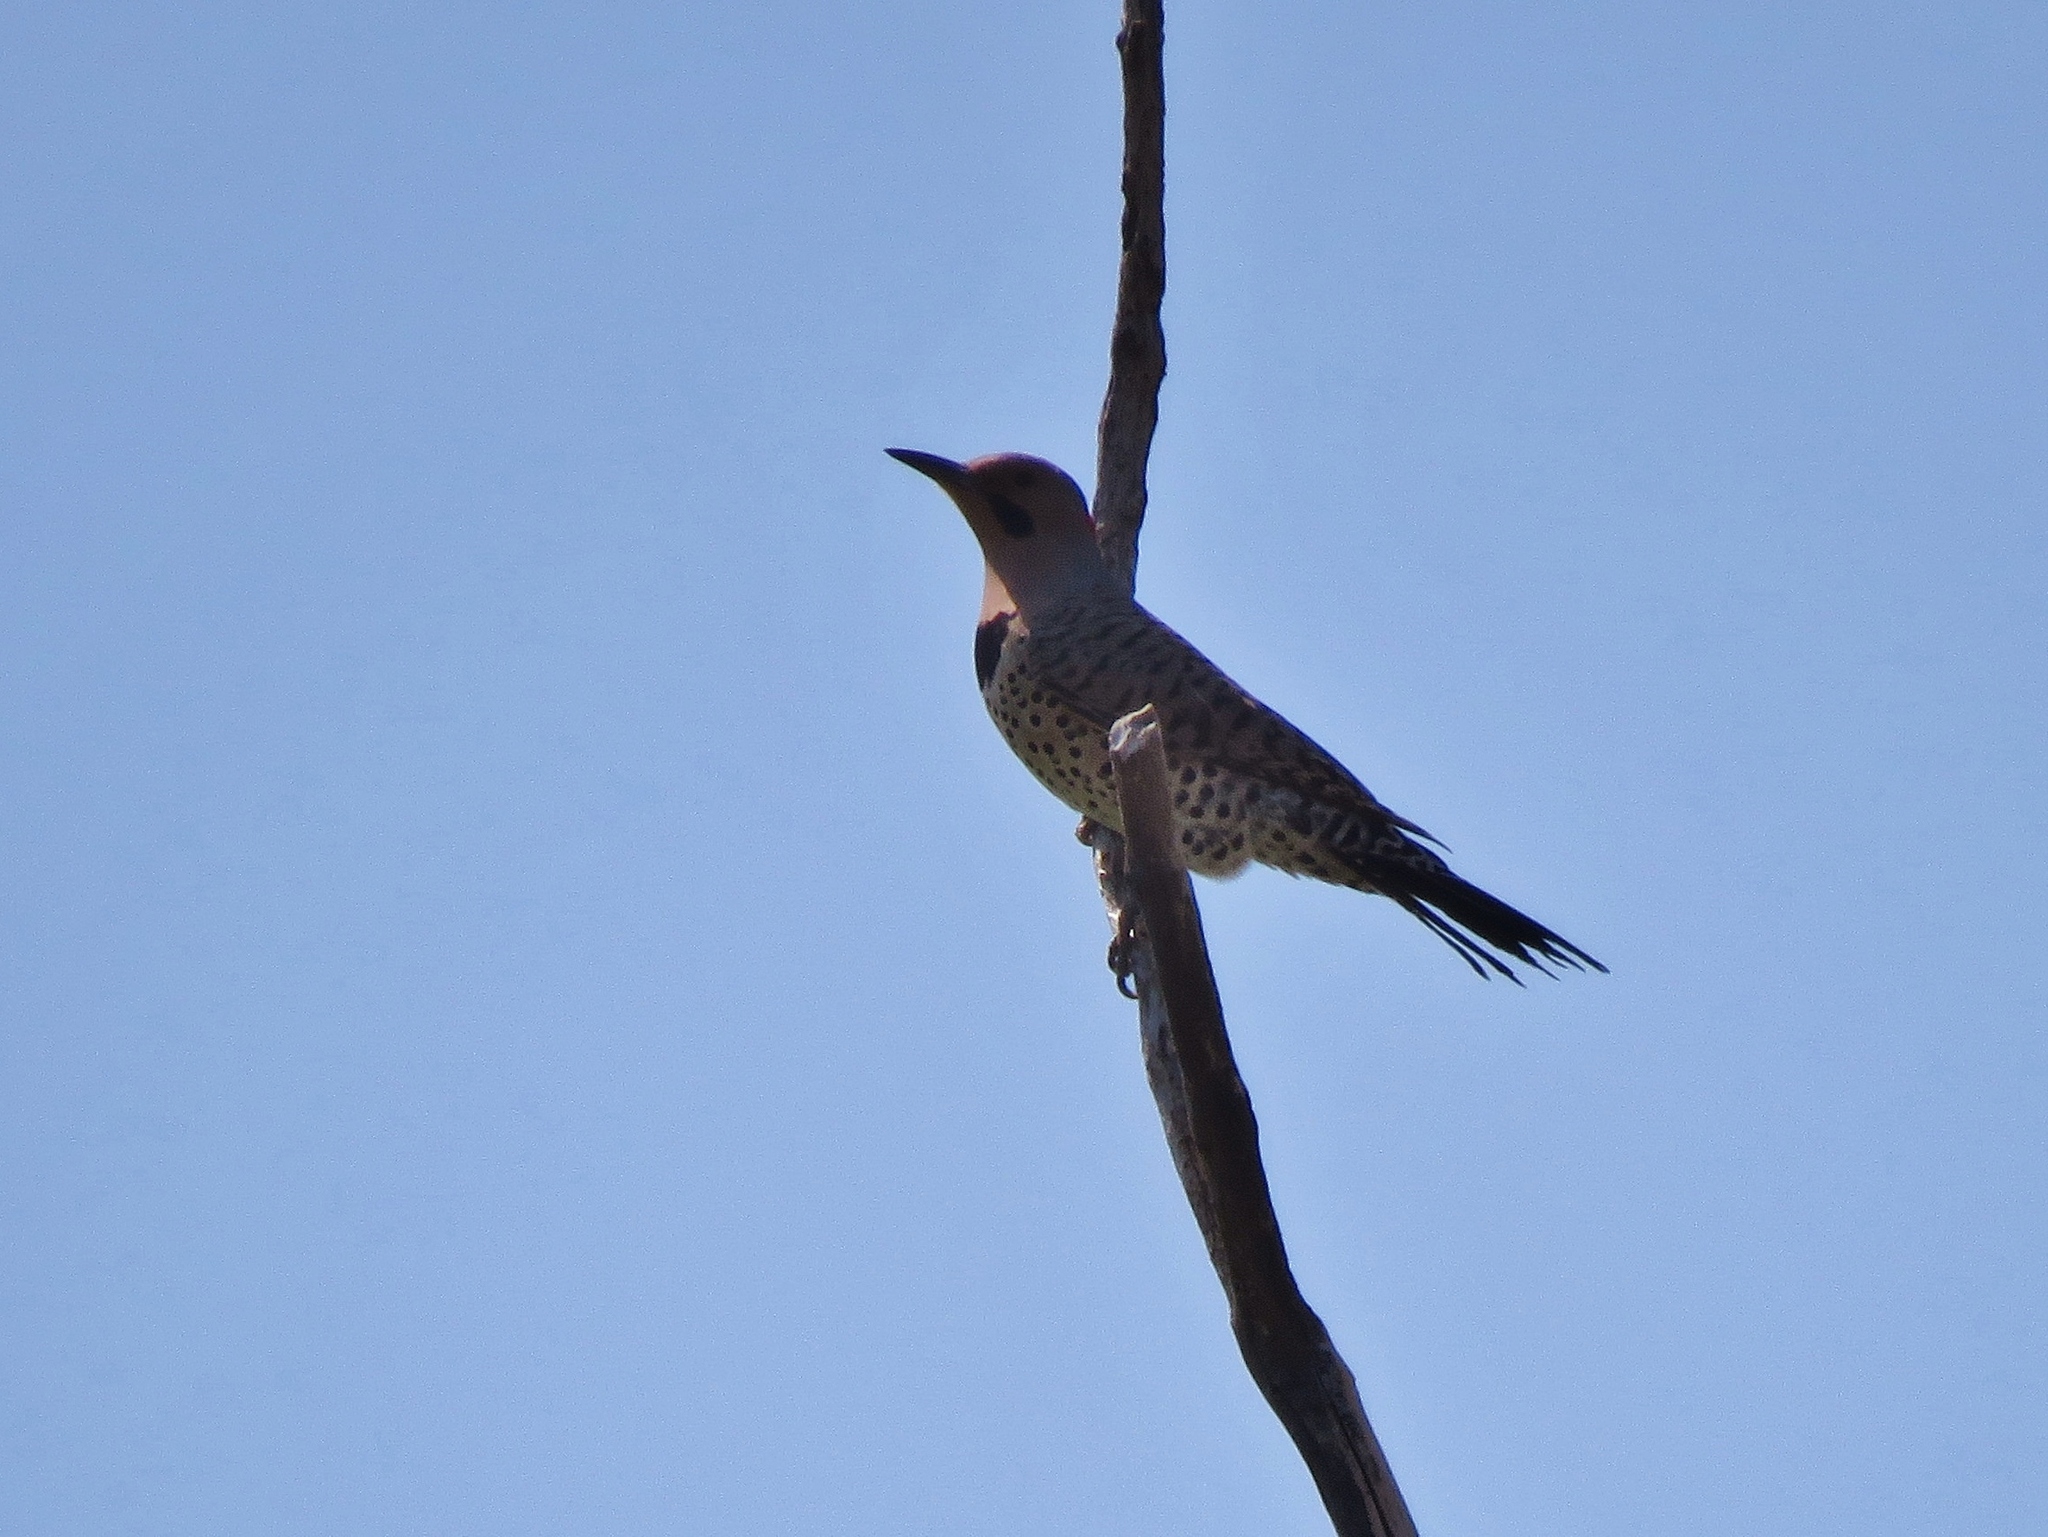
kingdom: Animalia
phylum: Chordata
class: Aves
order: Piciformes
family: Picidae
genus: Colaptes
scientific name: Colaptes auratus
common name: Northern flicker
